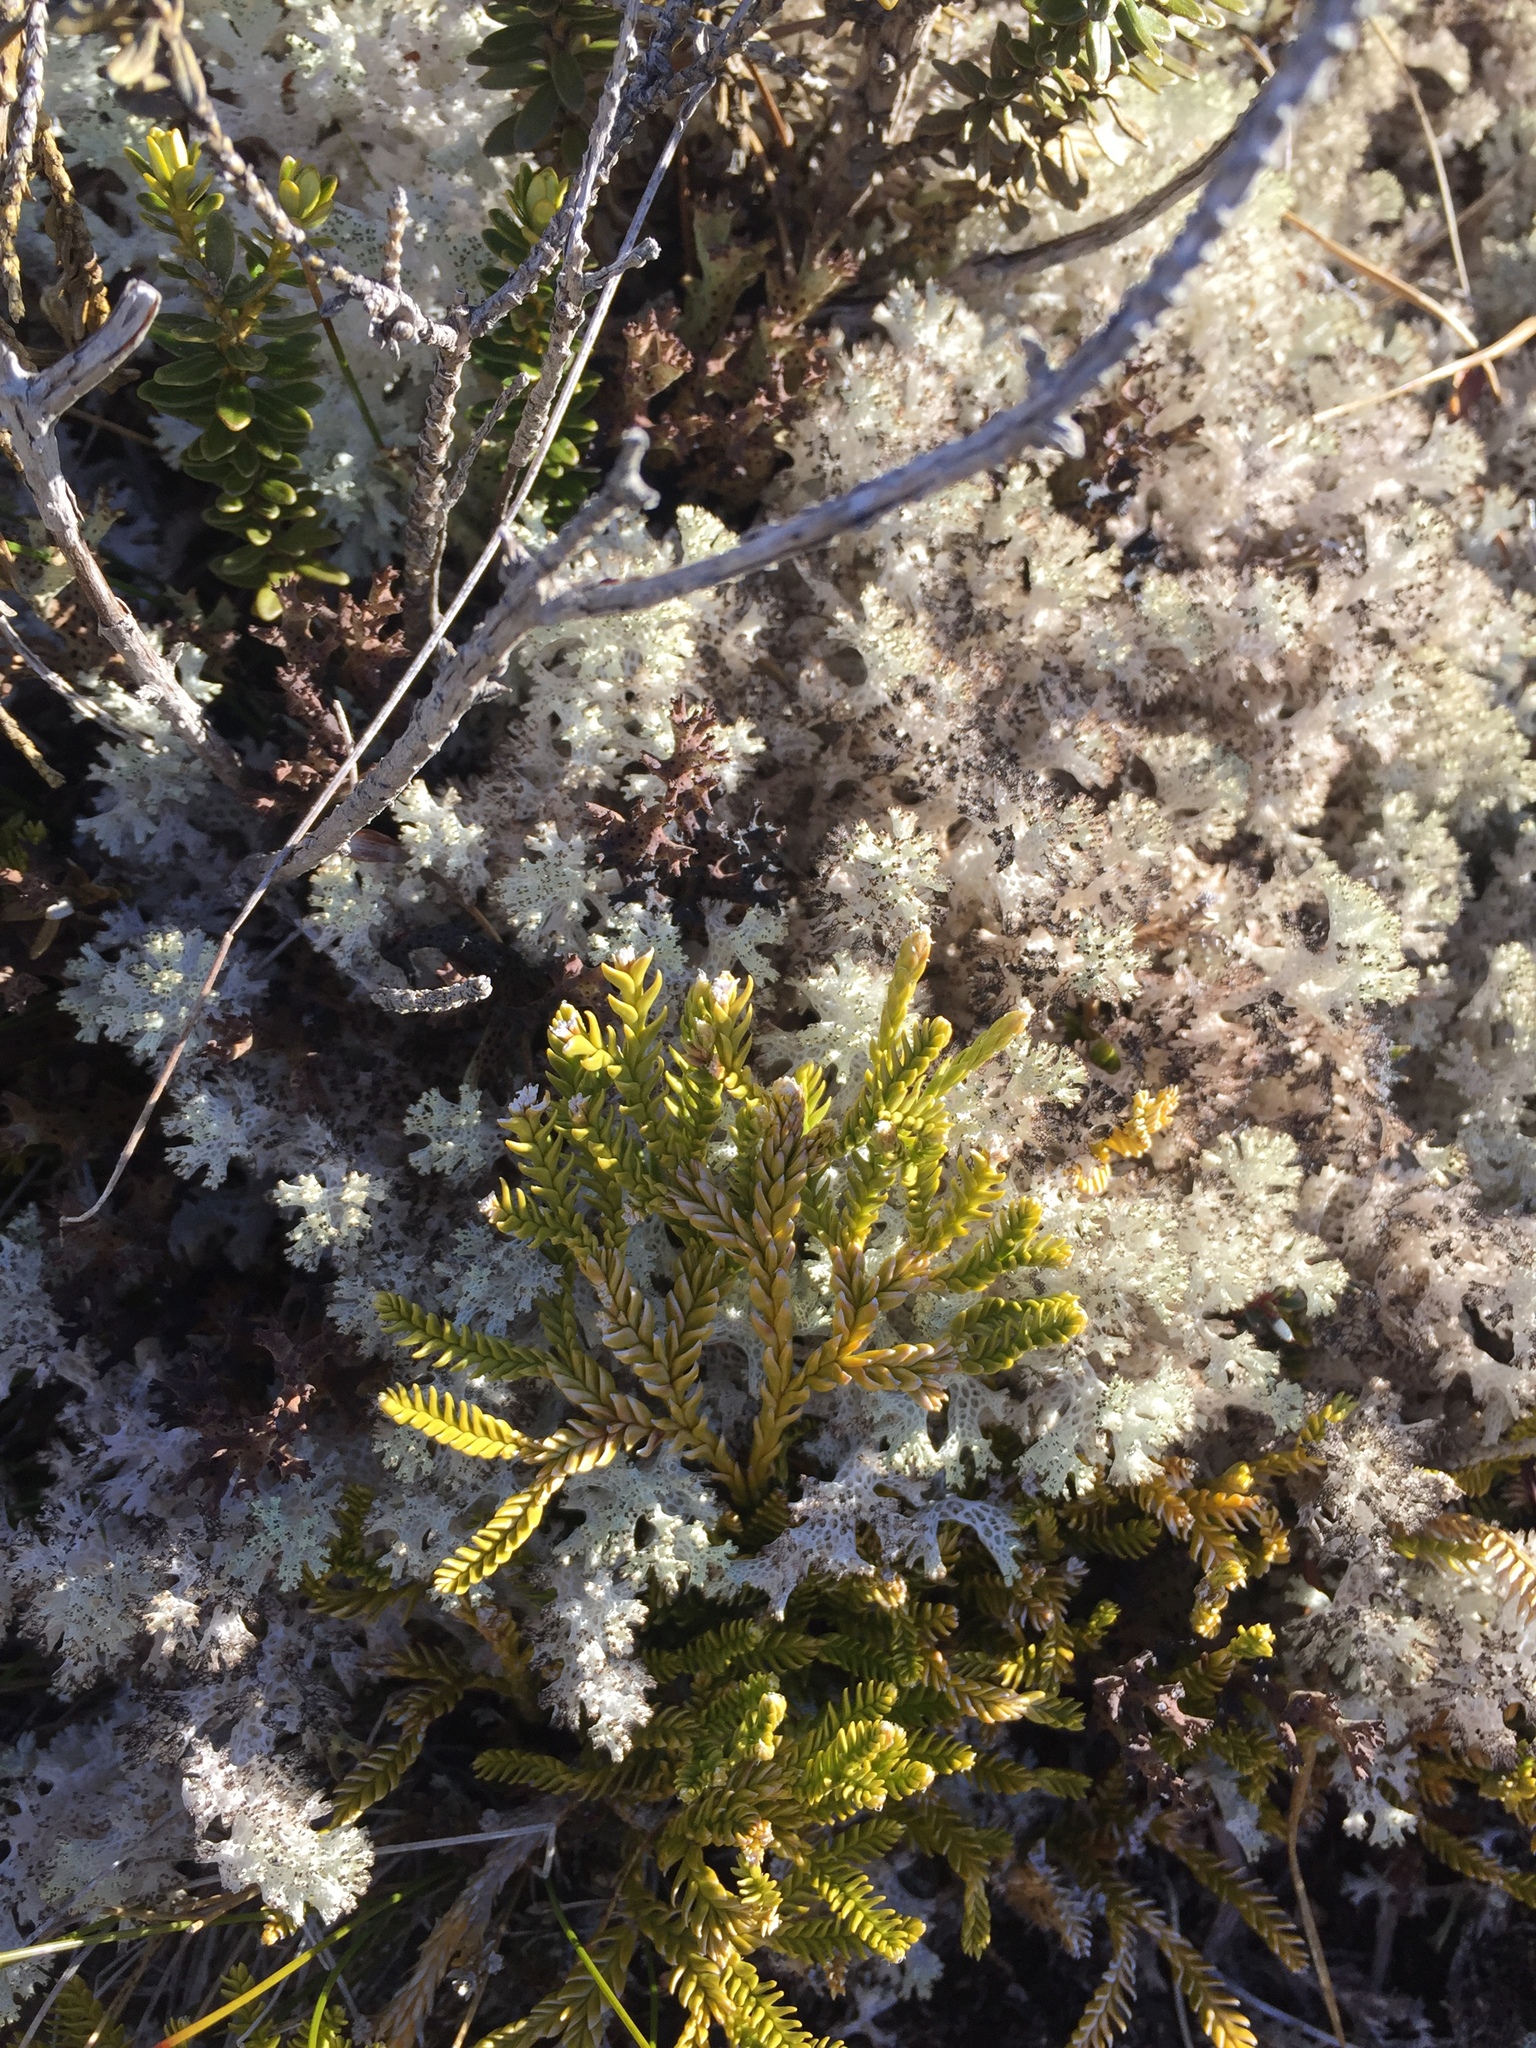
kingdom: Plantae
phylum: Tracheophyta
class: Lycopodiopsida
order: Lycopodiales
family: Lycopodiaceae
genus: Diphasium
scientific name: Diphasium scariosum
